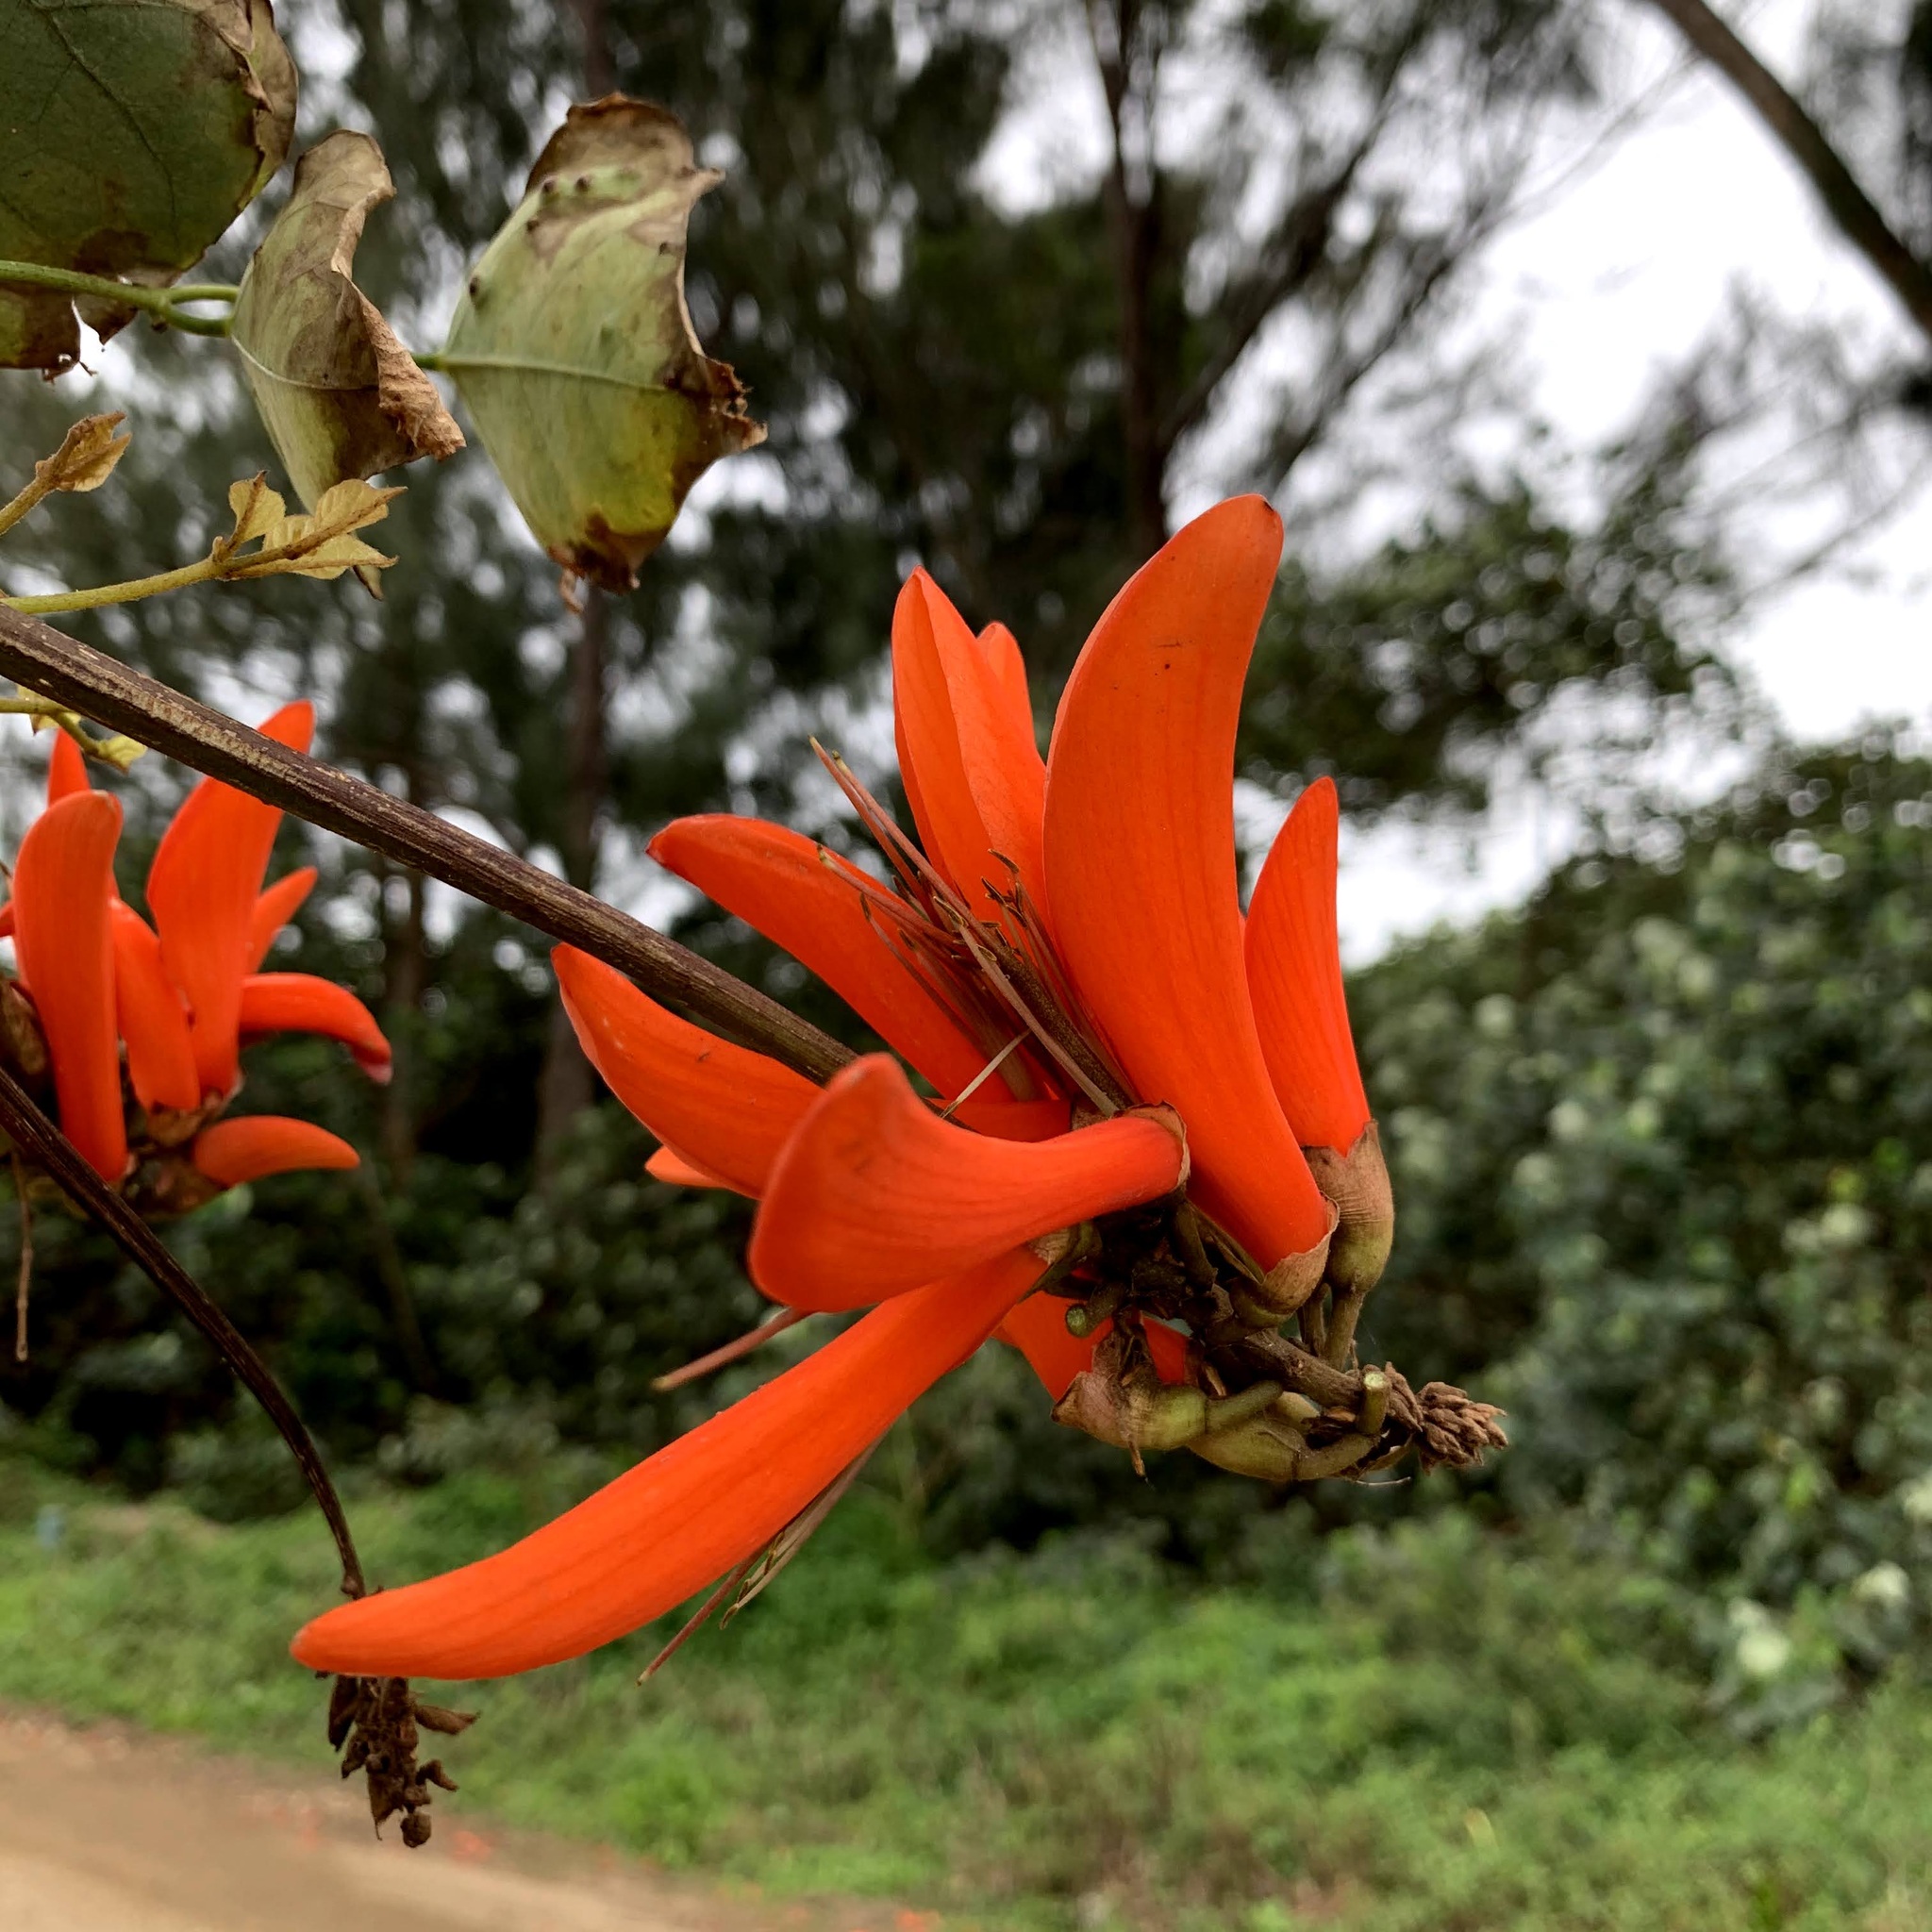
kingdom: Plantae
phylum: Tracheophyta
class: Magnoliopsida
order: Fabales
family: Fabaceae
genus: Erythrina
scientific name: Erythrina lysistemon
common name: Common coral tree
